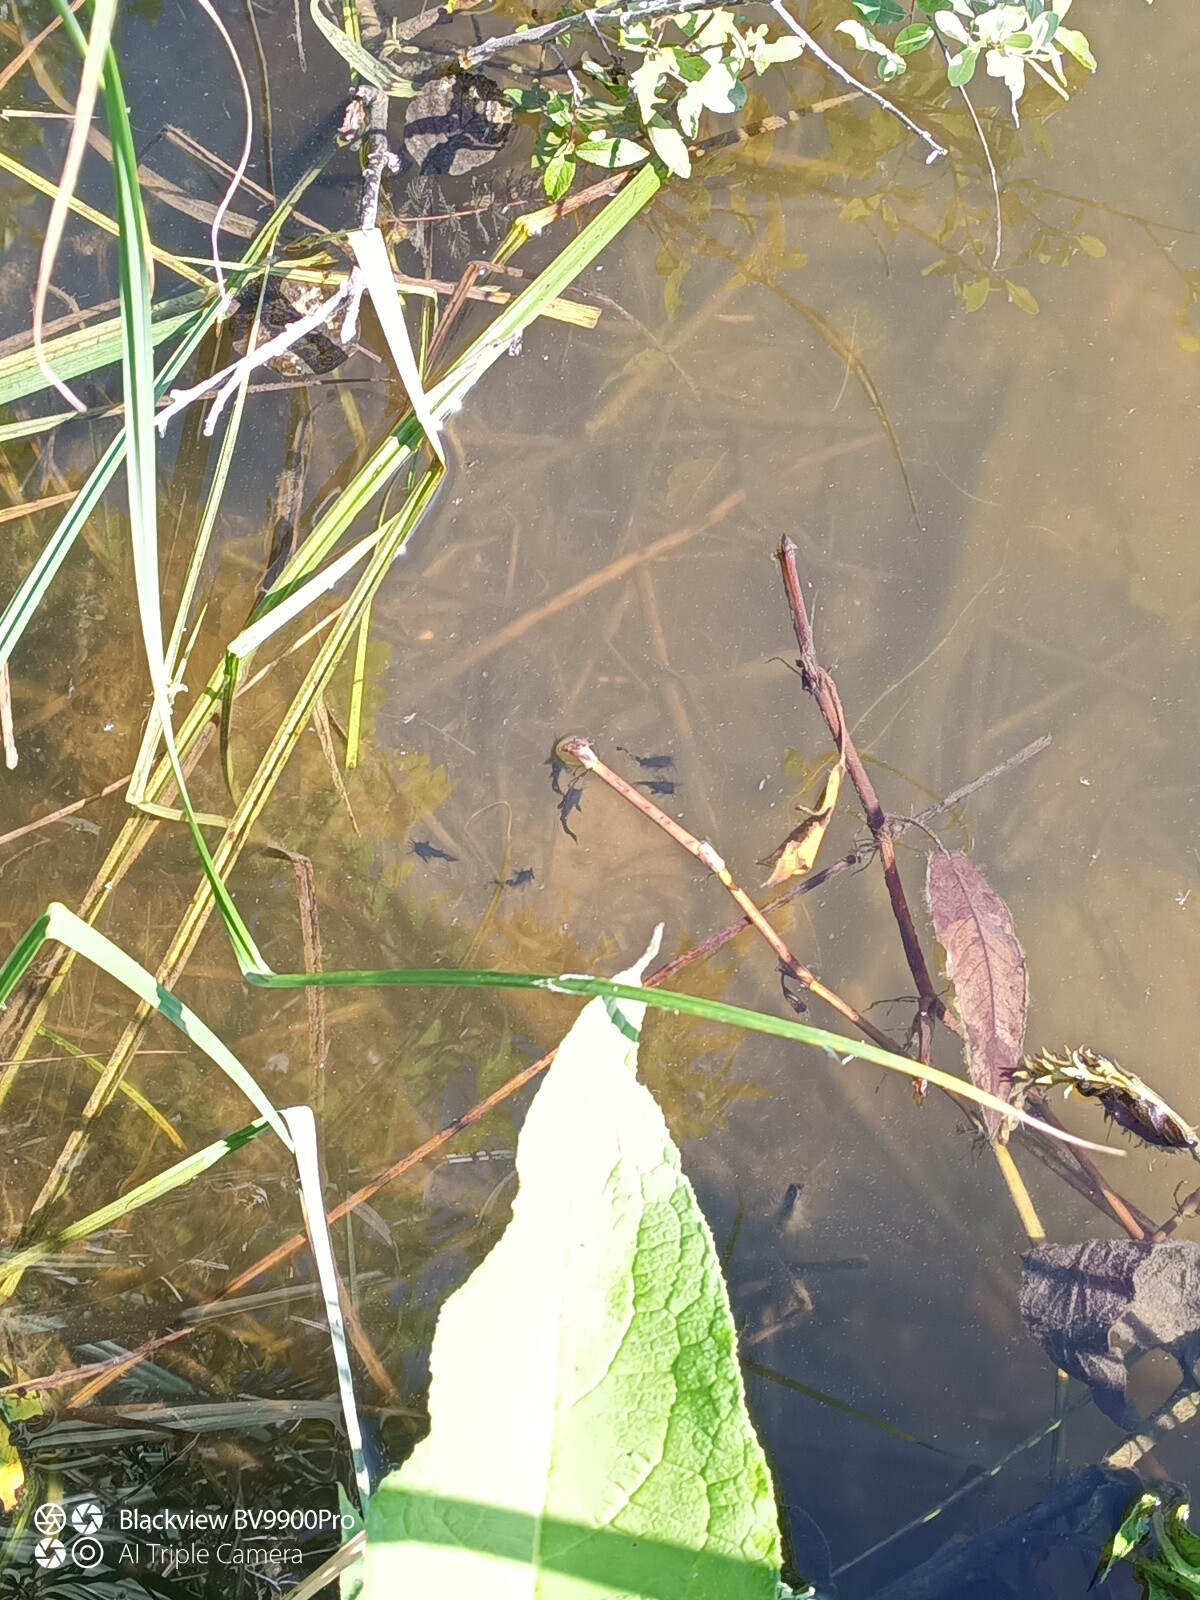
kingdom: Animalia
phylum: Chordata
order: Siluriformes
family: Ictaluridae
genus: Ameiurus
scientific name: Ameiurus melas
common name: Black bullhead
